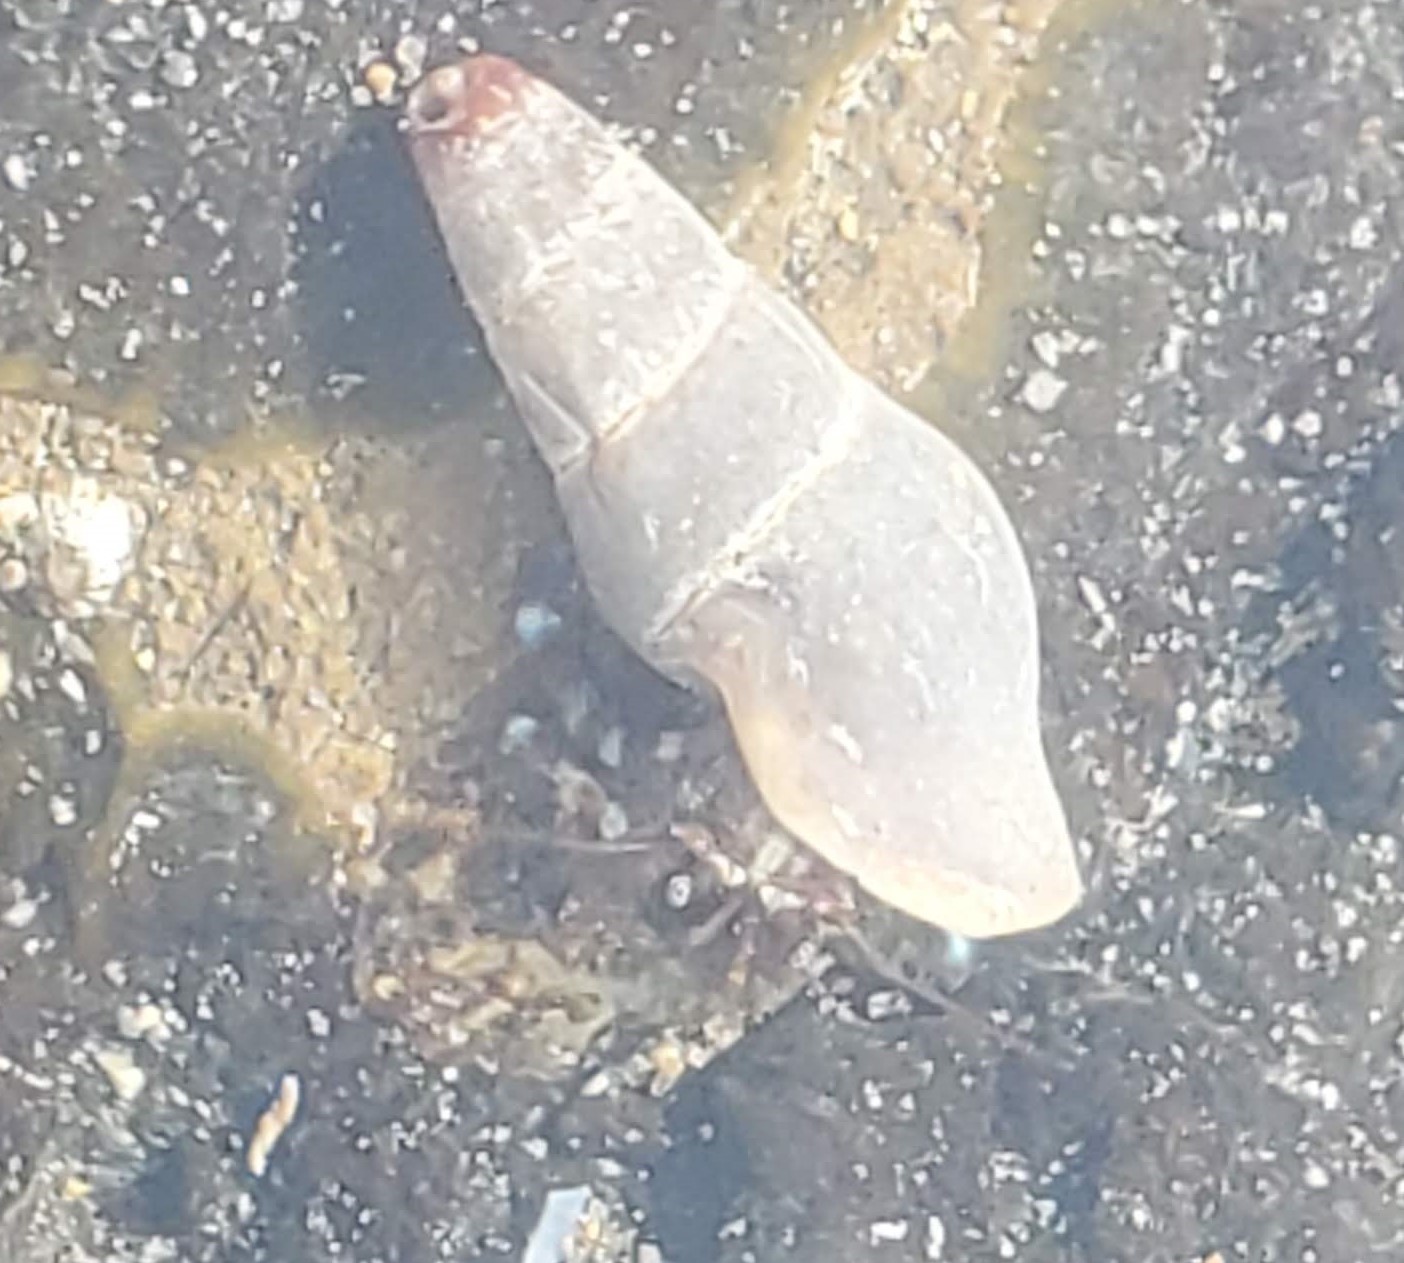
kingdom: Animalia
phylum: Arthropoda
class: Malacostraca
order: Decapoda
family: Paguridae
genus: Pagurus
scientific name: Pagurus samuelis
